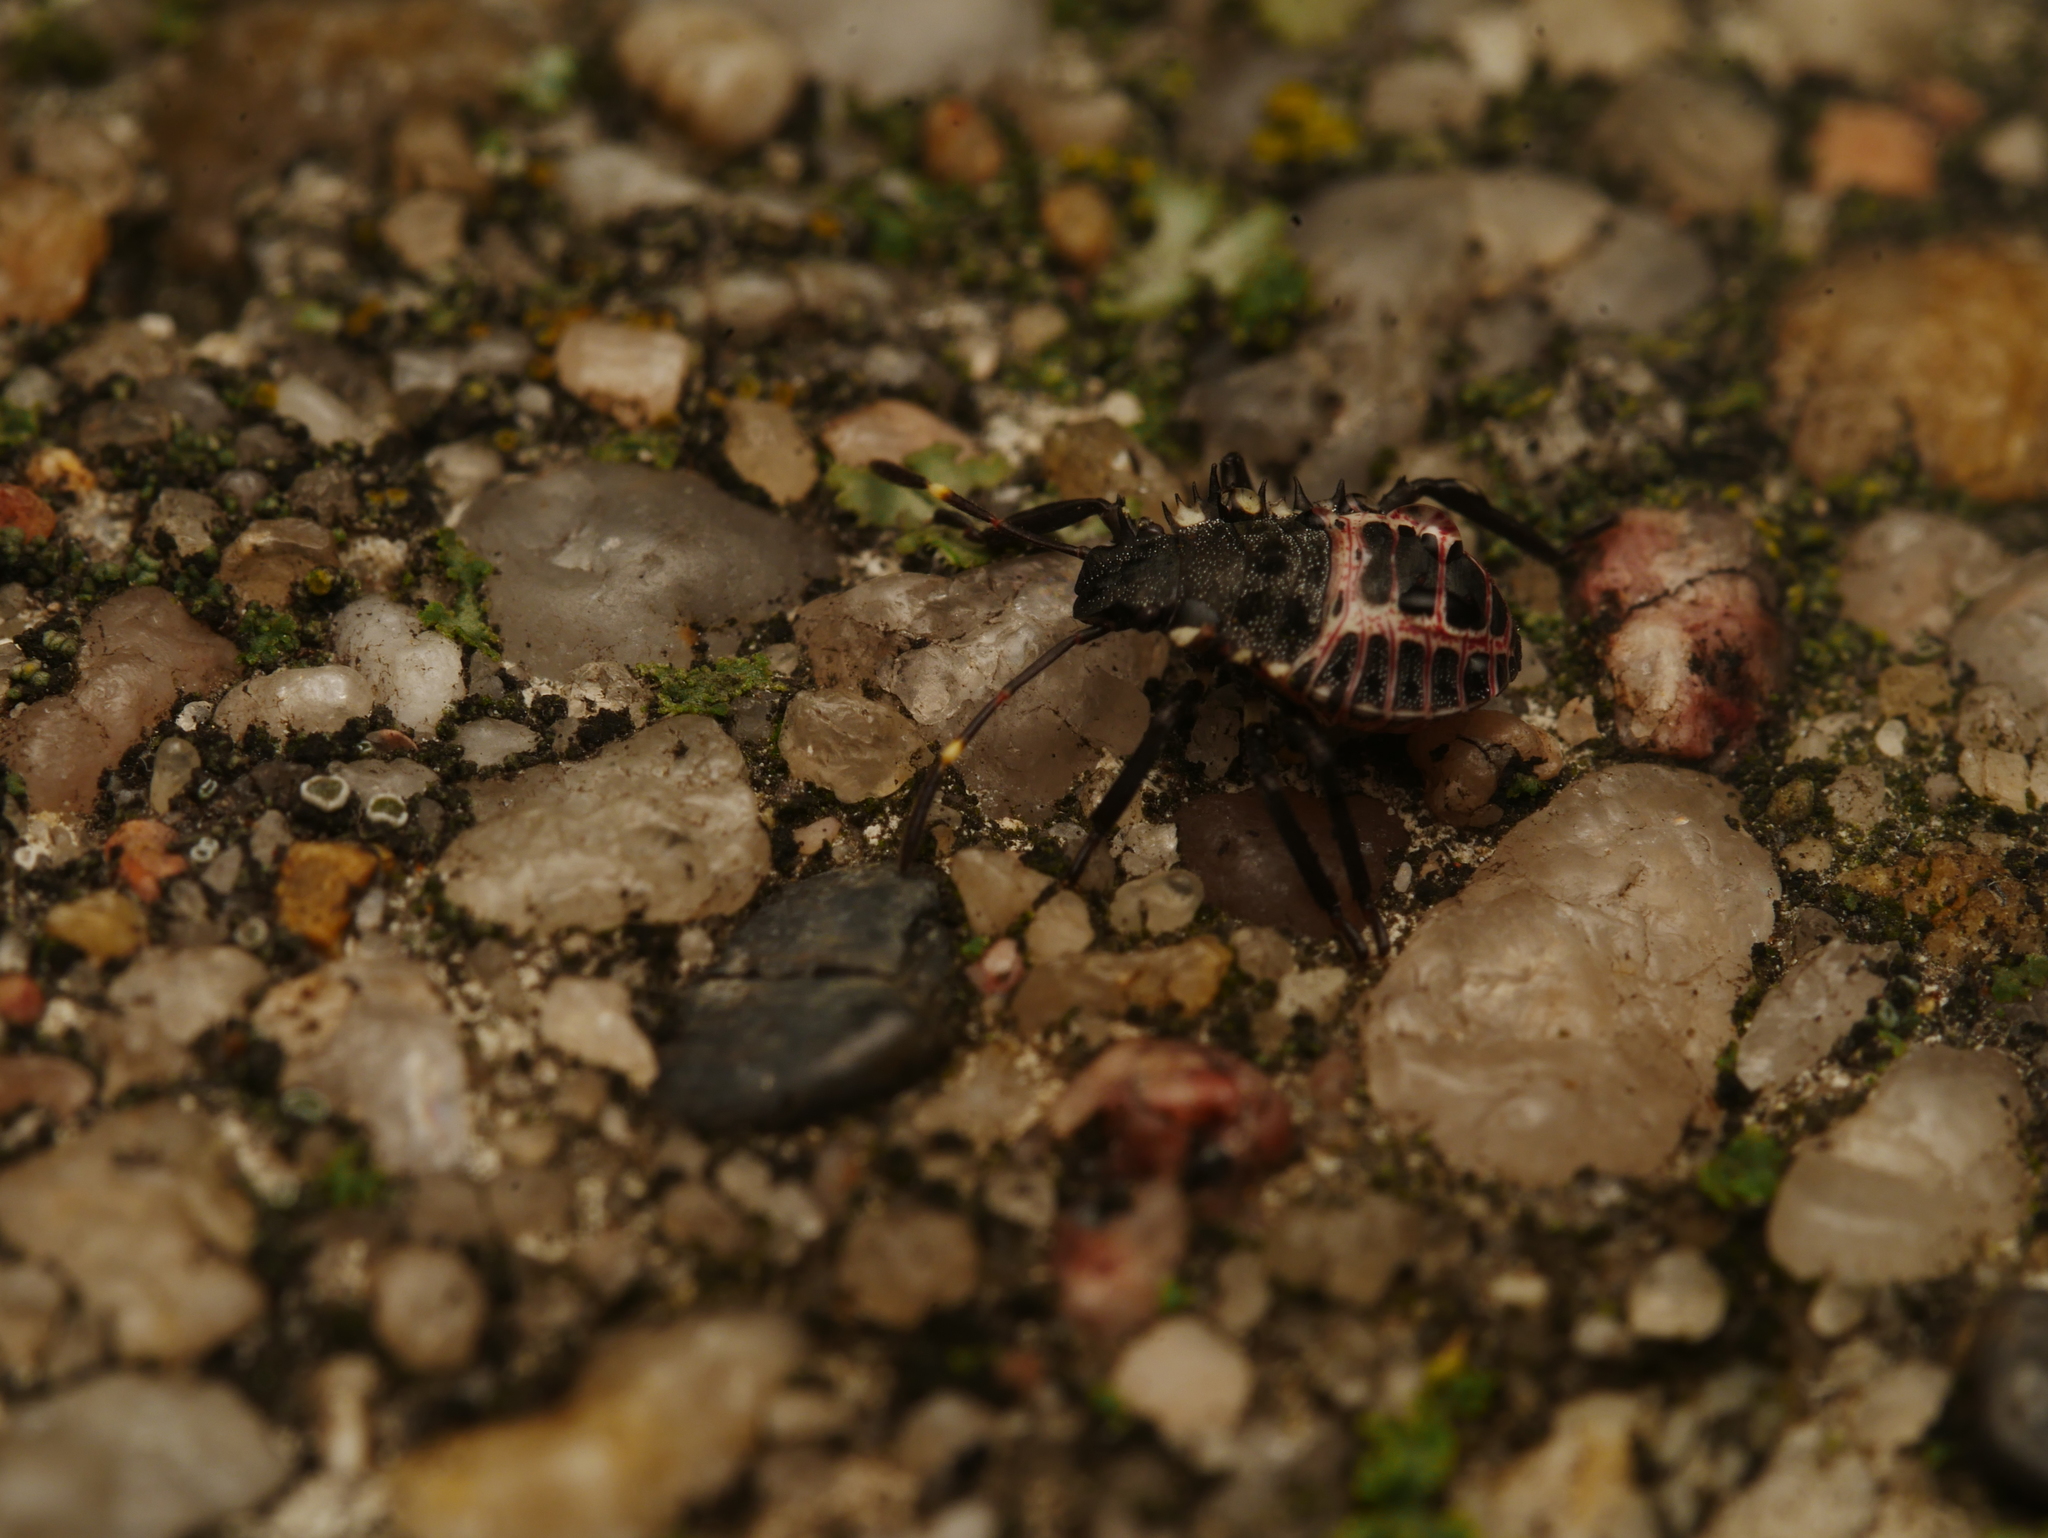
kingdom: Animalia
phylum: Arthropoda
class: Insecta
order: Hemiptera
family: Pentatomidae
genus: Halyomorpha
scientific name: Halyomorpha halys
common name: Brown marmorated stink bug
